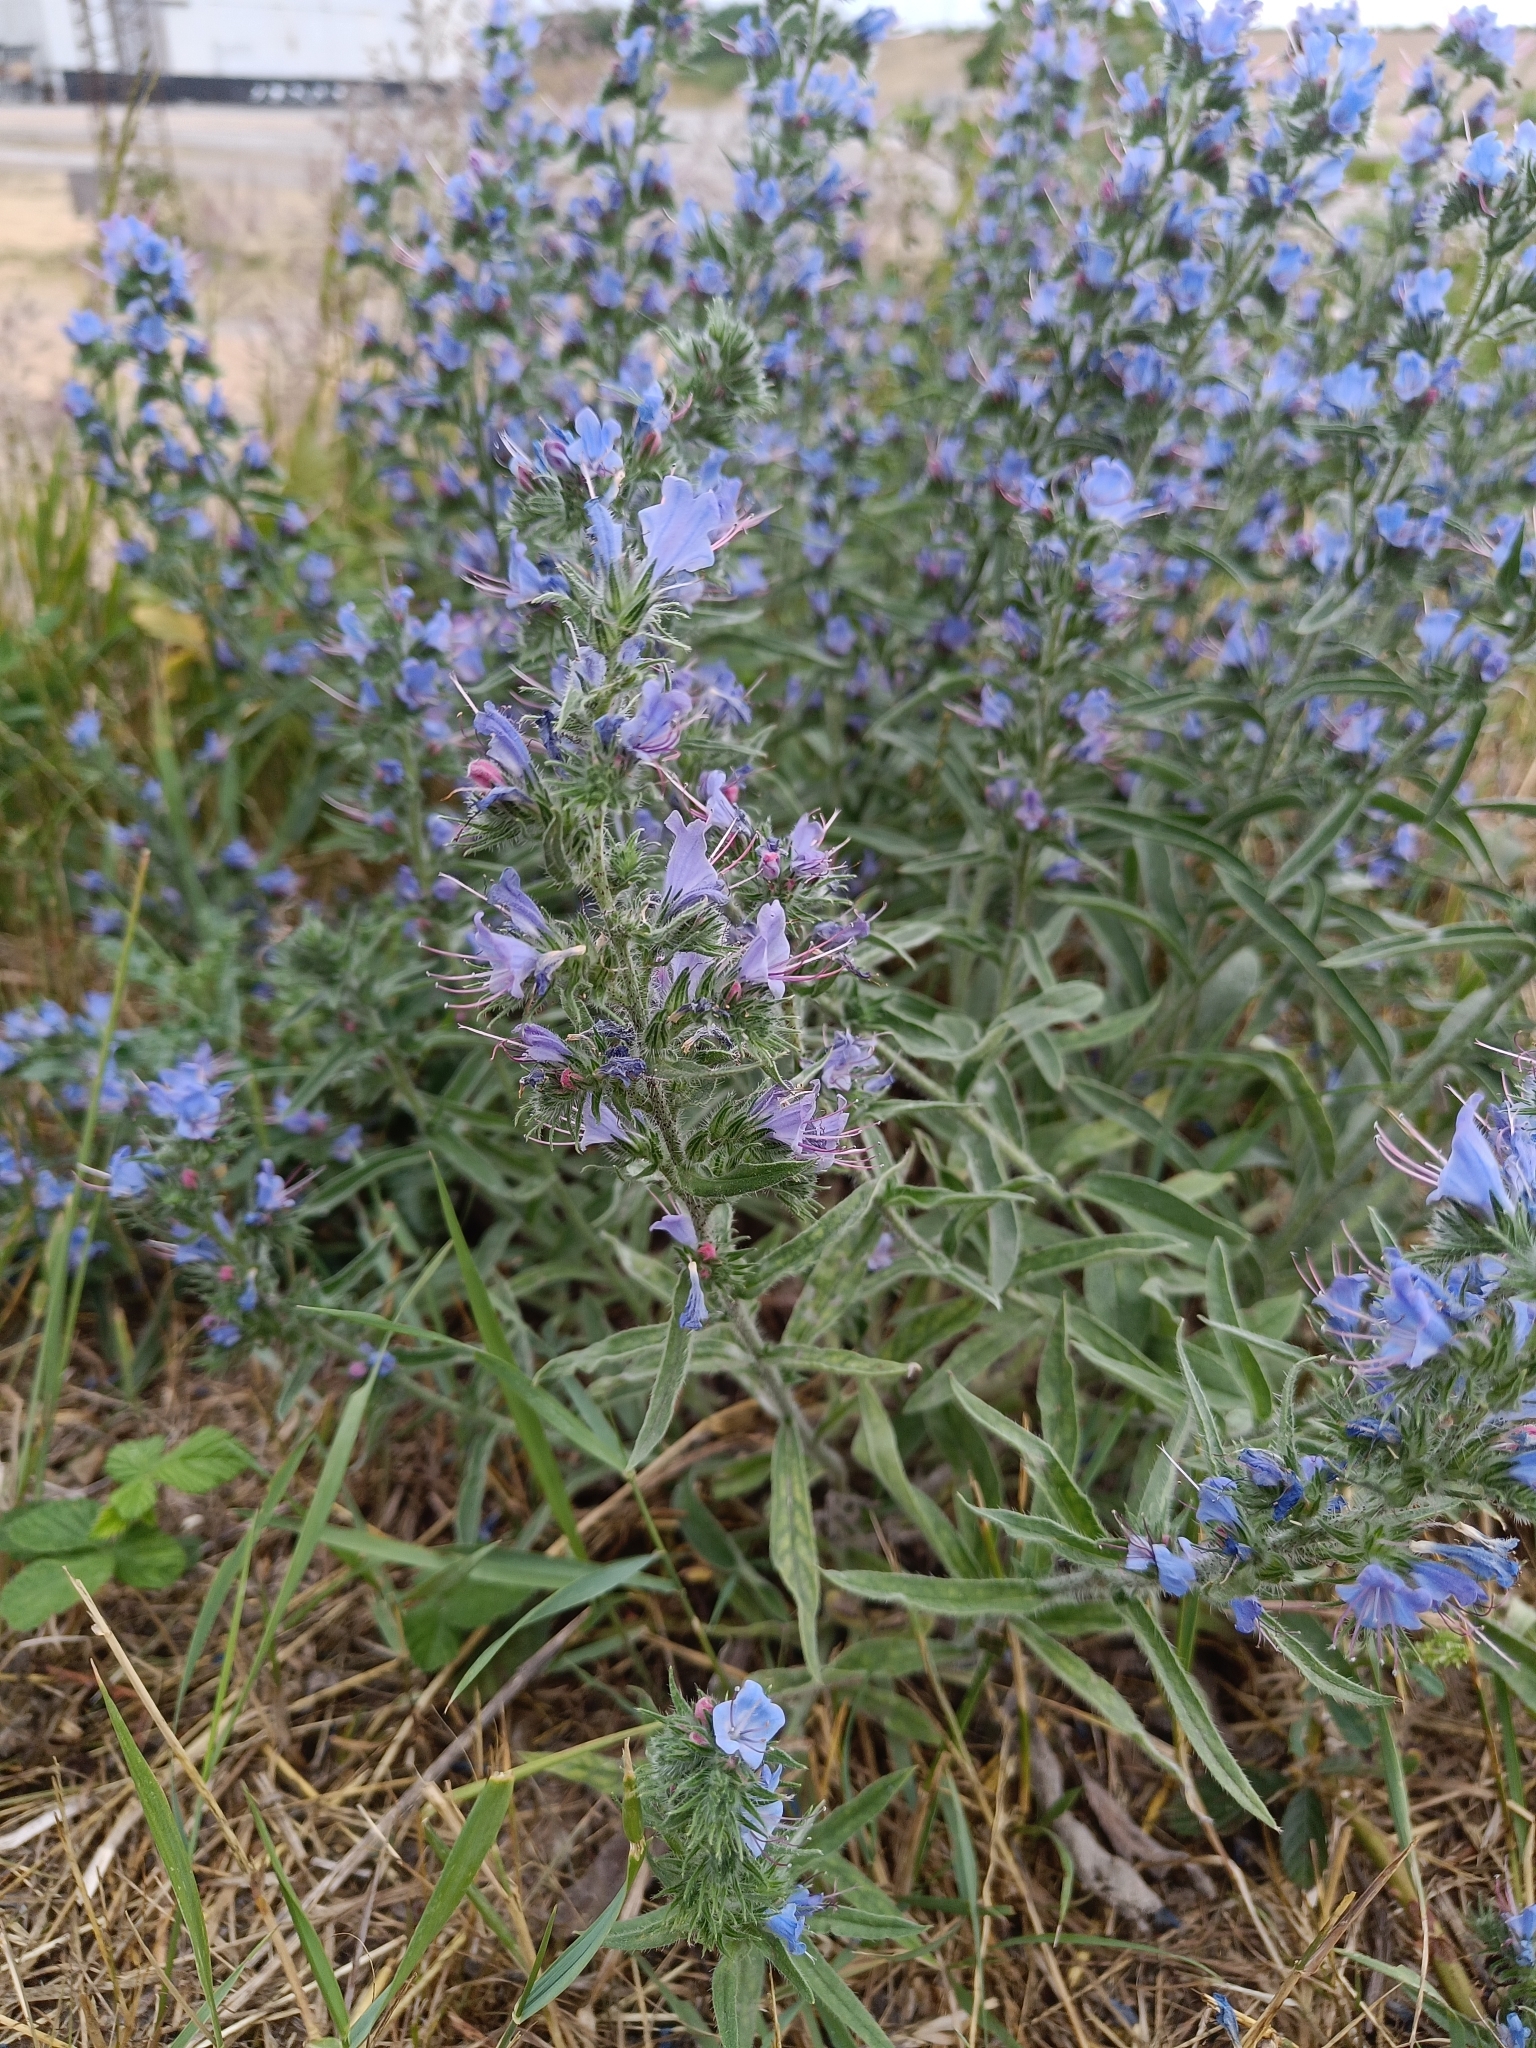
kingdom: Plantae
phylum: Tracheophyta
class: Magnoliopsida
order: Boraginales
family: Boraginaceae
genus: Echium
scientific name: Echium vulgare
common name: Common viper's bugloss
